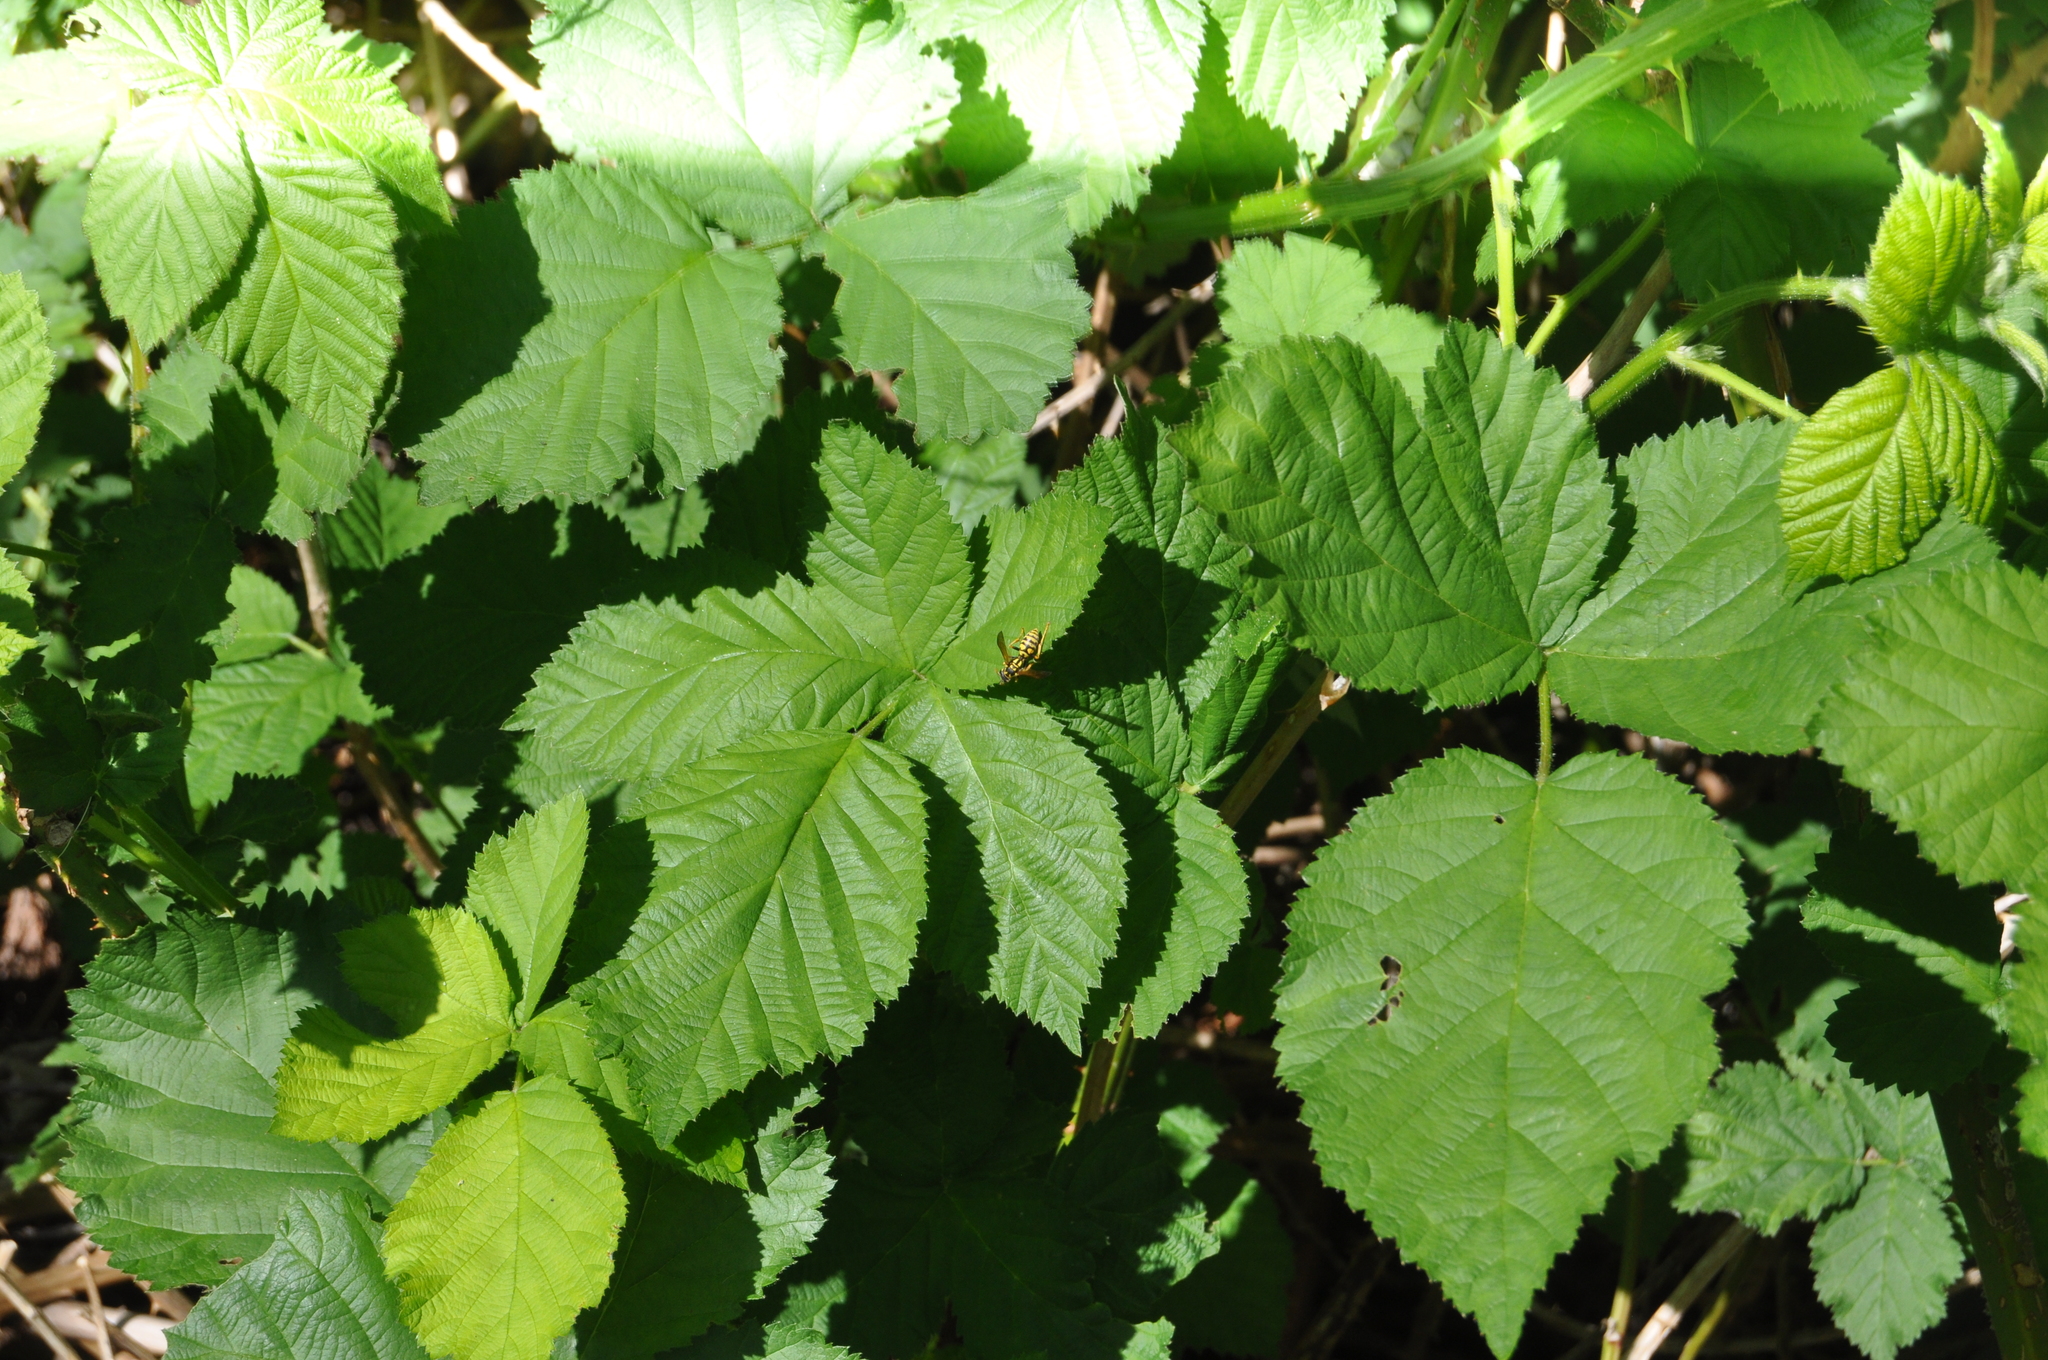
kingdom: Animalia
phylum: Arthropoda
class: Insecta
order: Hymenoptera
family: Eumenidae
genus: Polistes
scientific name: Polistes dominula
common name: Paper wasp
